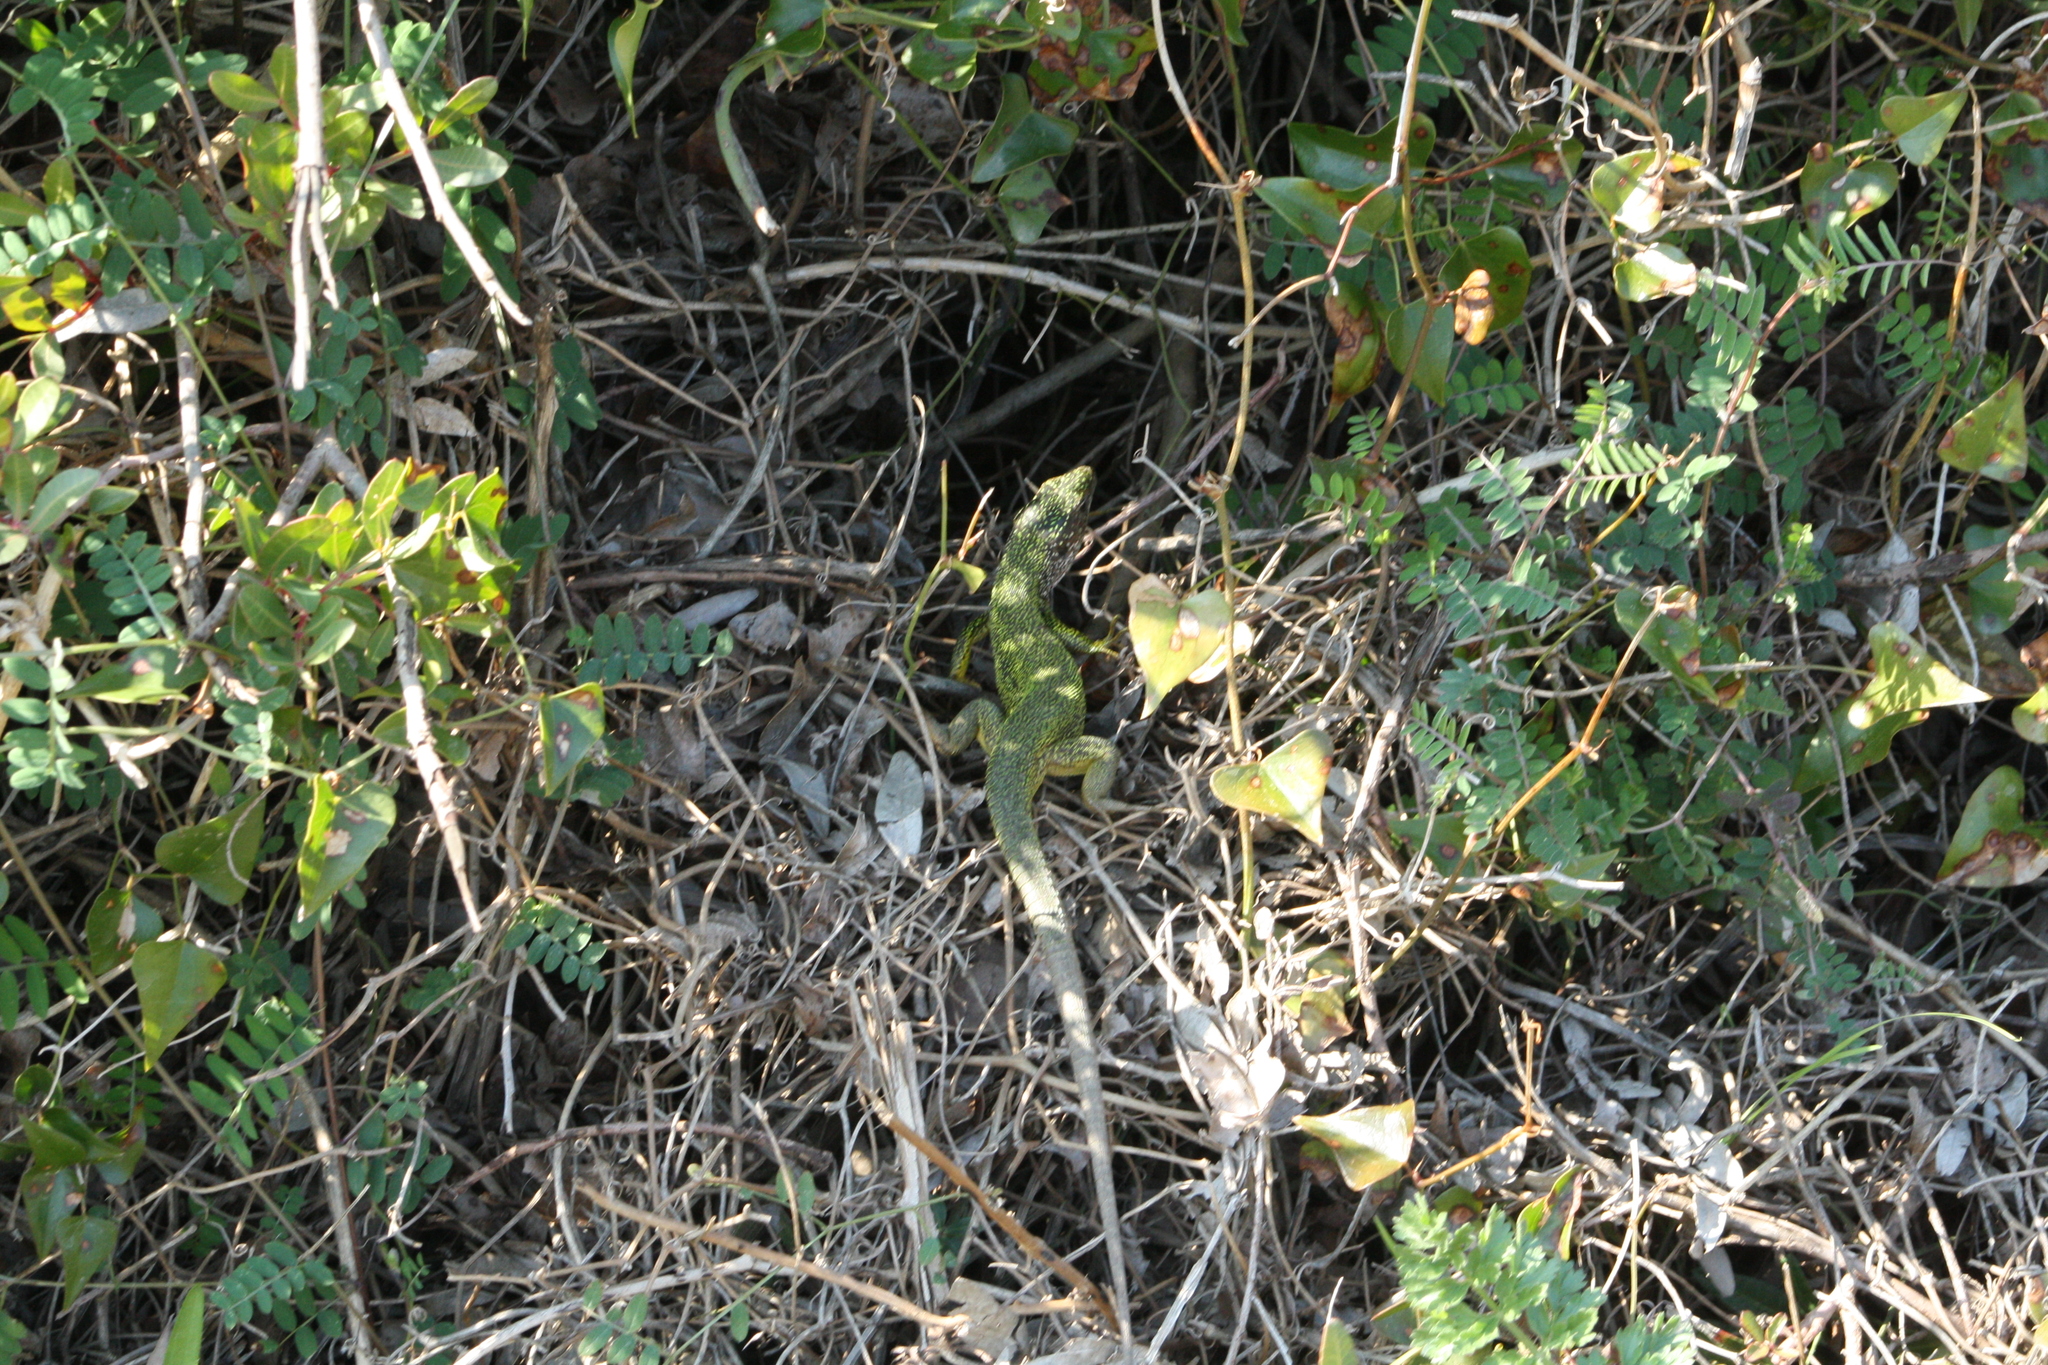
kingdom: Animalia
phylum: Chordata
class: Squamata
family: Lacertidae
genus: Lacerta
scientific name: Lacerta viridis
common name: European green lizard
